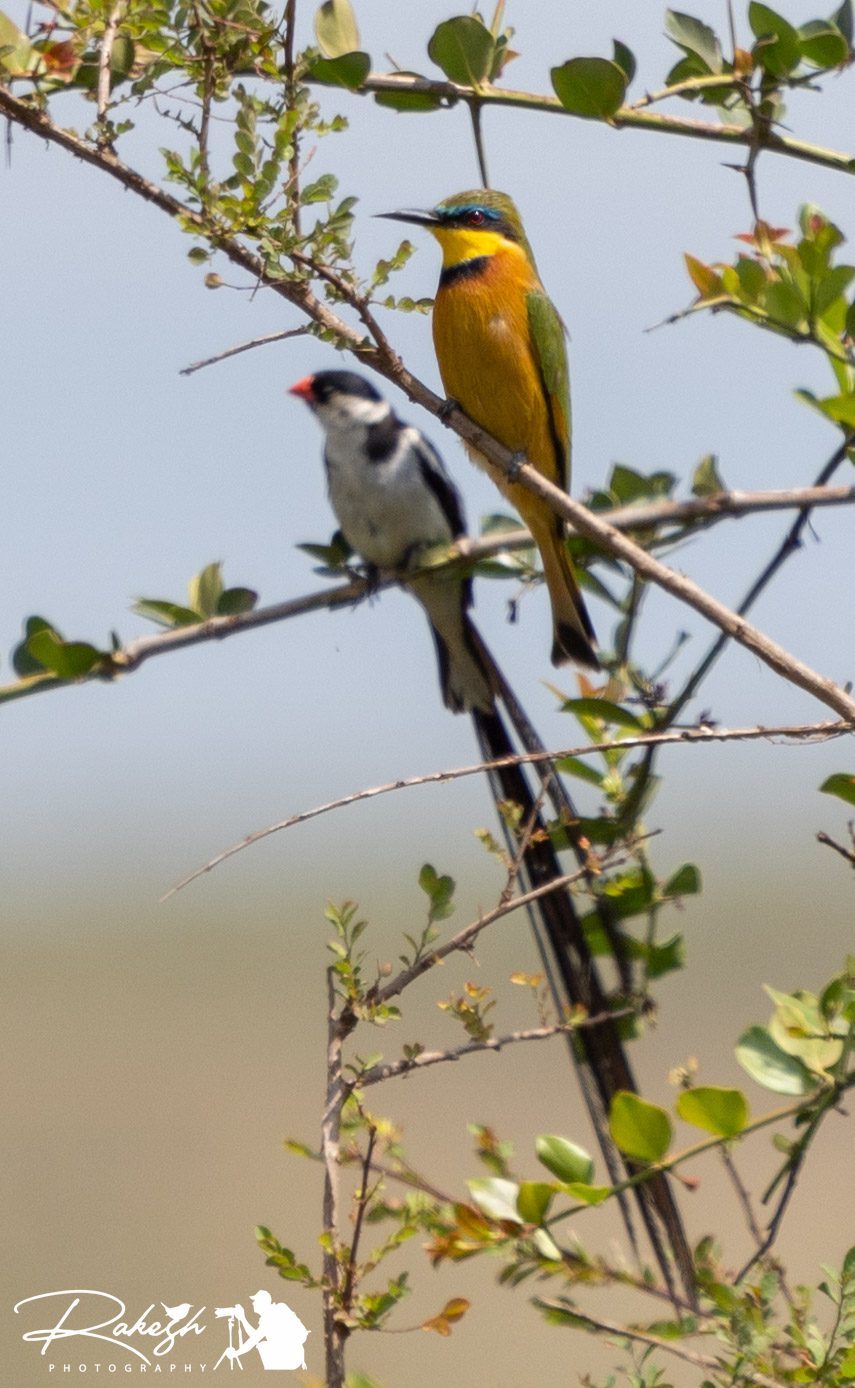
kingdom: Animalia
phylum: Chordata
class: Aves
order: Coraciiformes
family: Meropidae
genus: Merops
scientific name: Merops pusillus
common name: Little bee-eater
